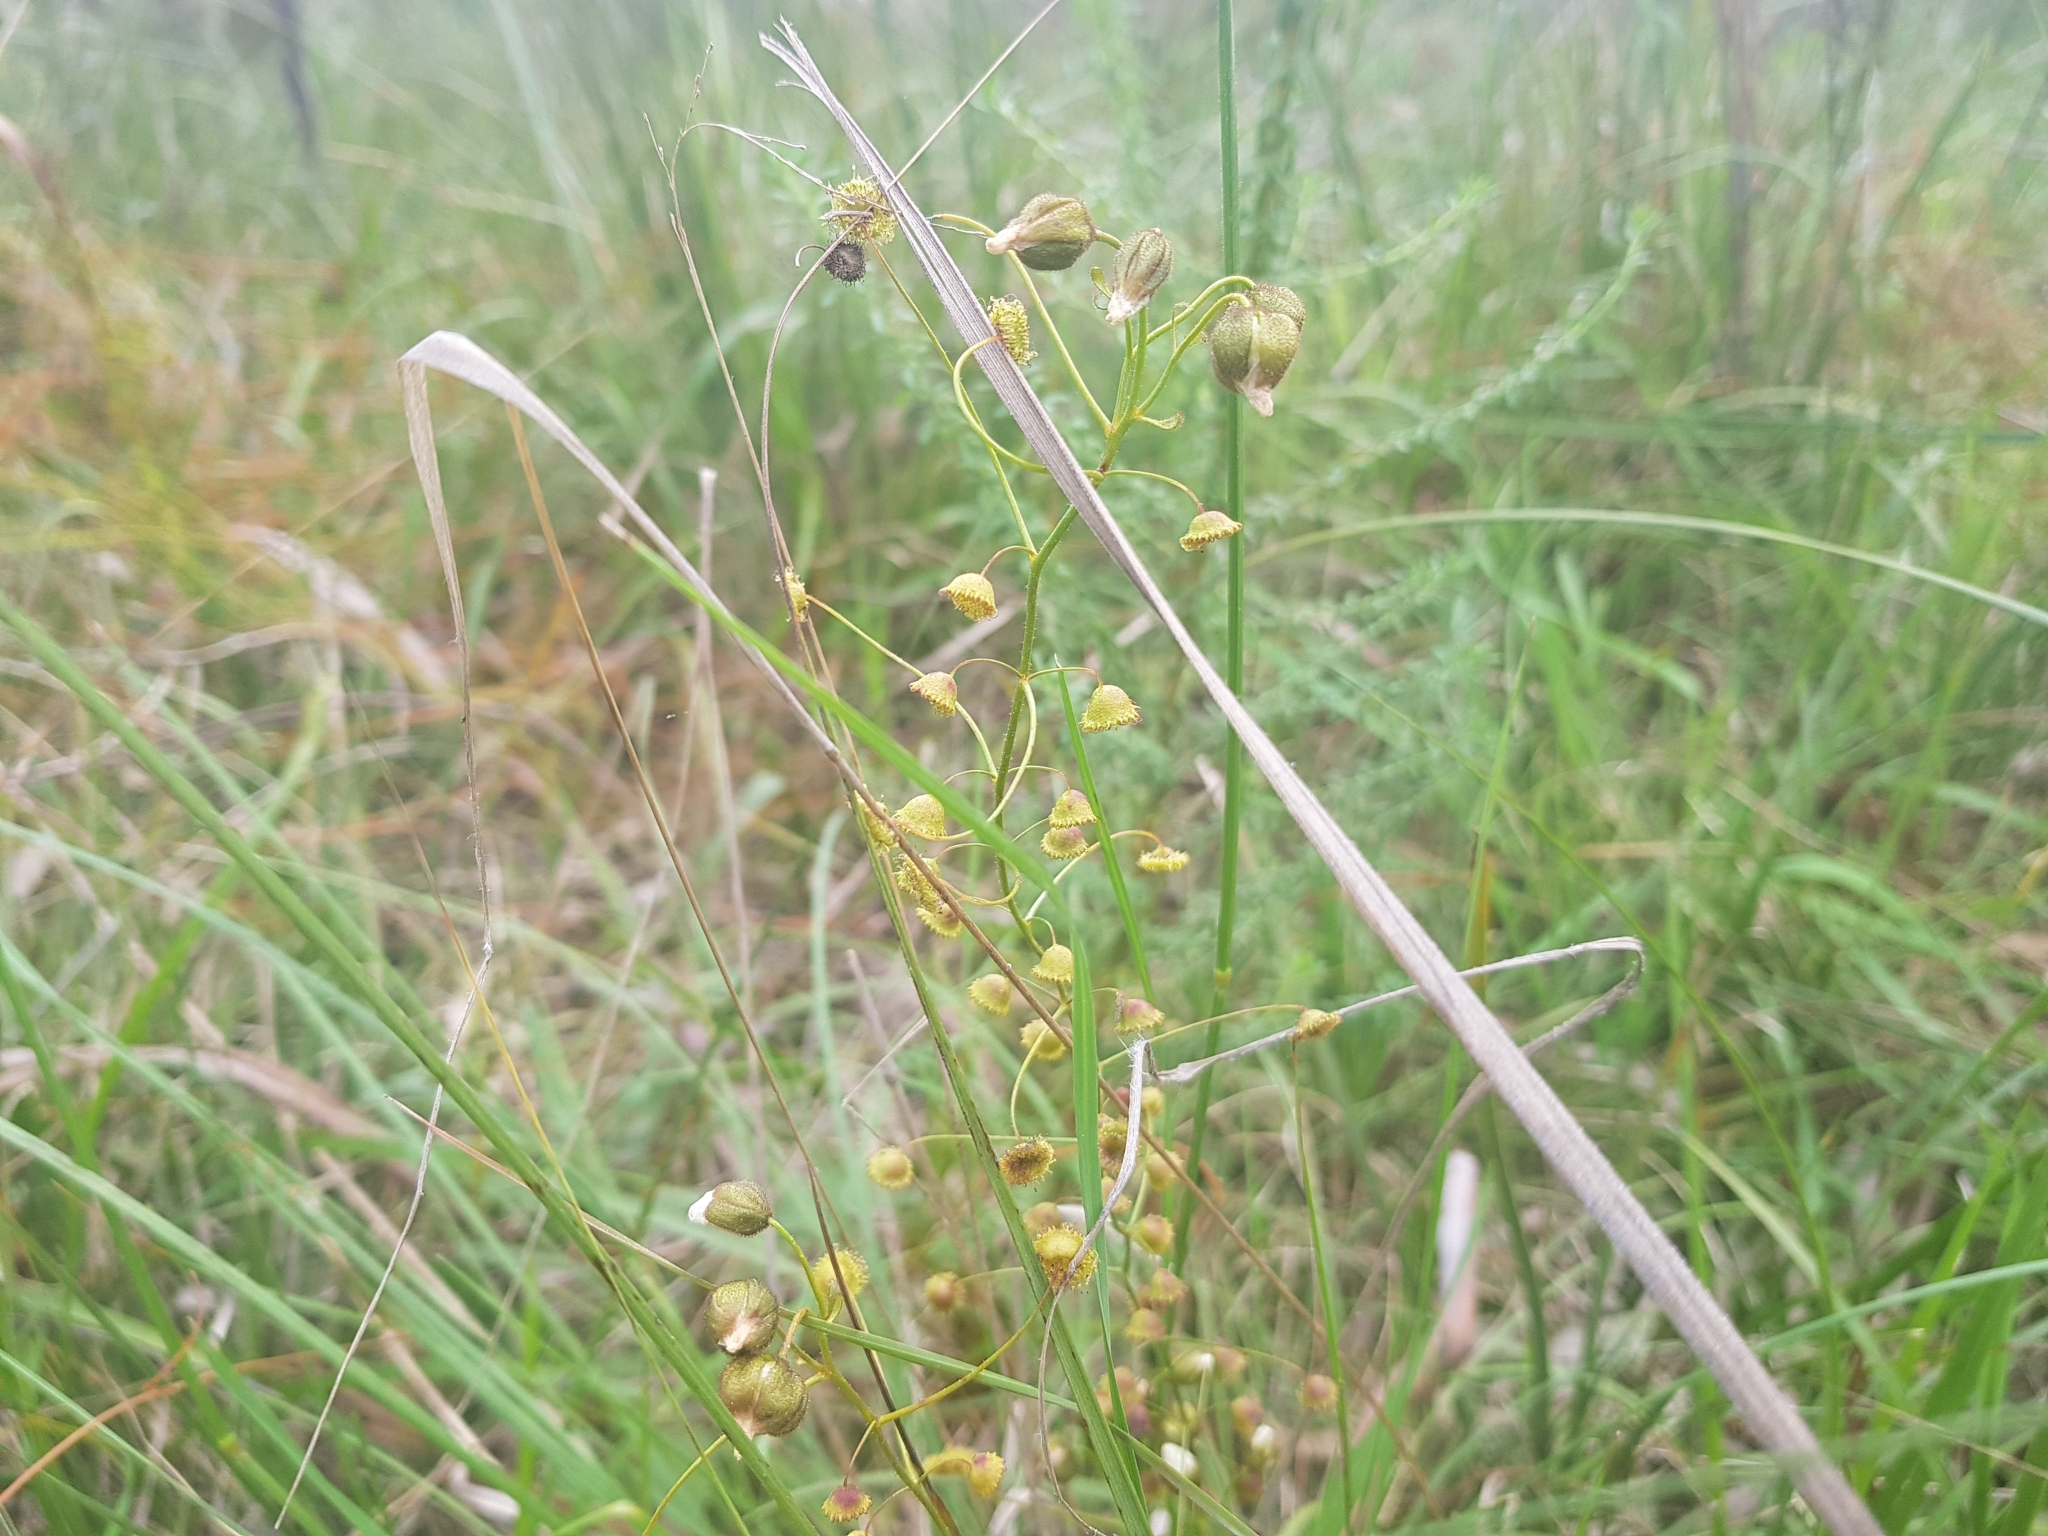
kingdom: Plantae
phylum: Tracheophyta
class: Magnoliopsida
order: Caryophyllales
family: Droseraceae
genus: Drosera
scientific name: Drosera planchonii
